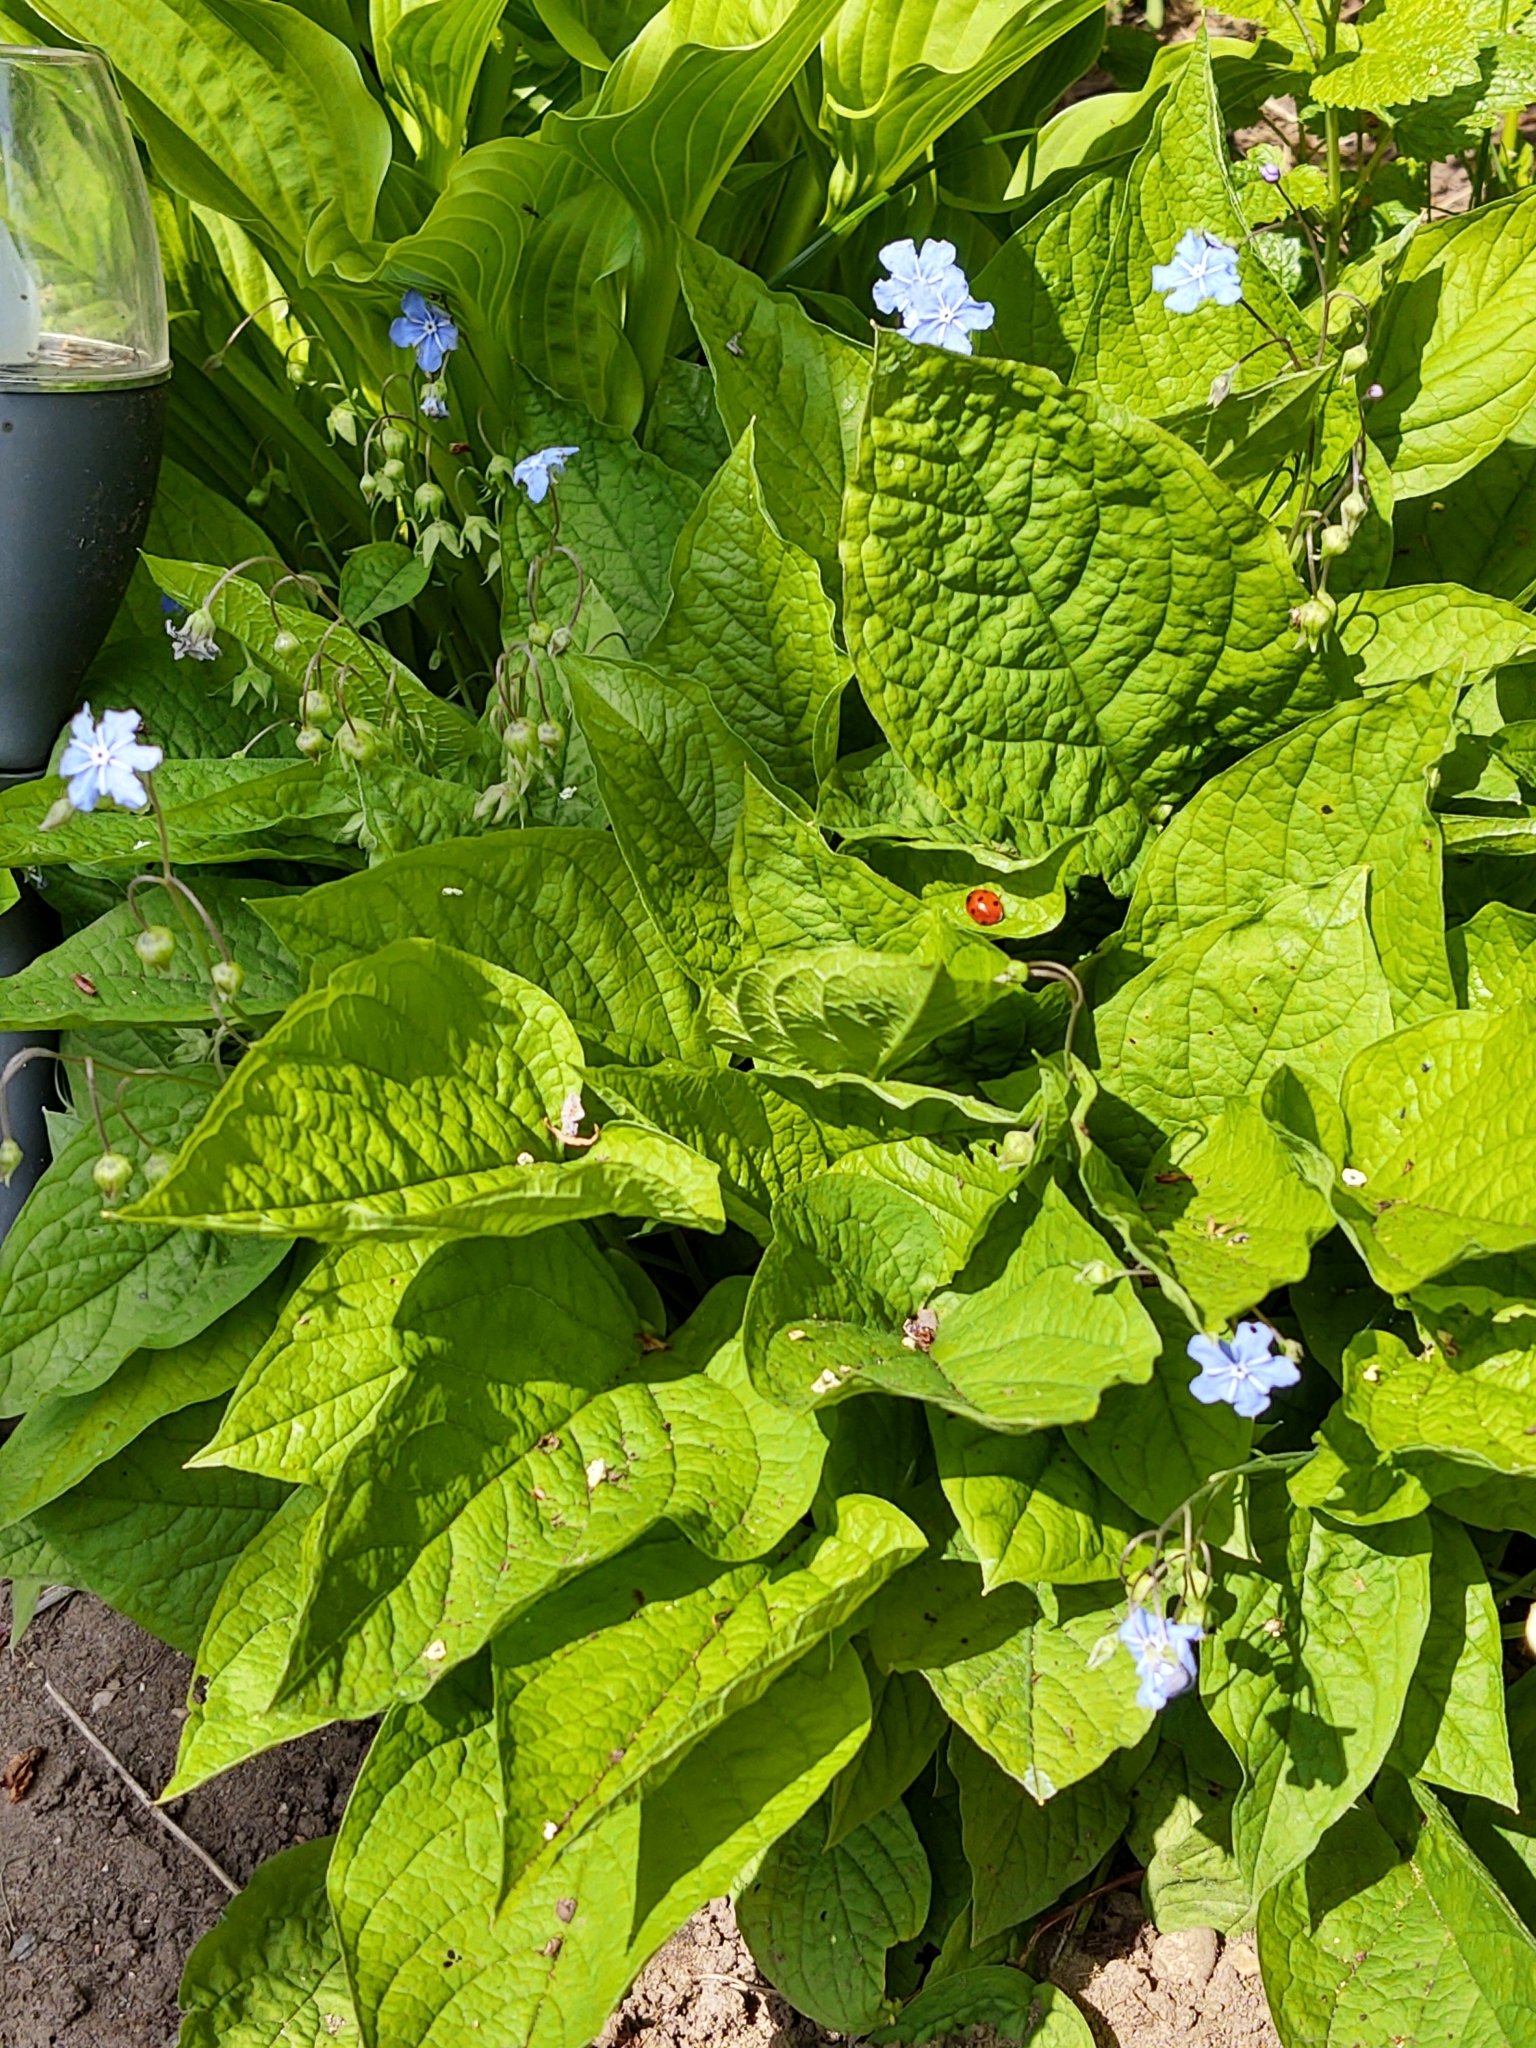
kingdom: Plantae
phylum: Tracheophyta
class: Magnoliopsida
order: Boraginales
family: Boraginaceae
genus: Omphalodes
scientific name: Omphalodes verna
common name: Blue-eyed-mary
